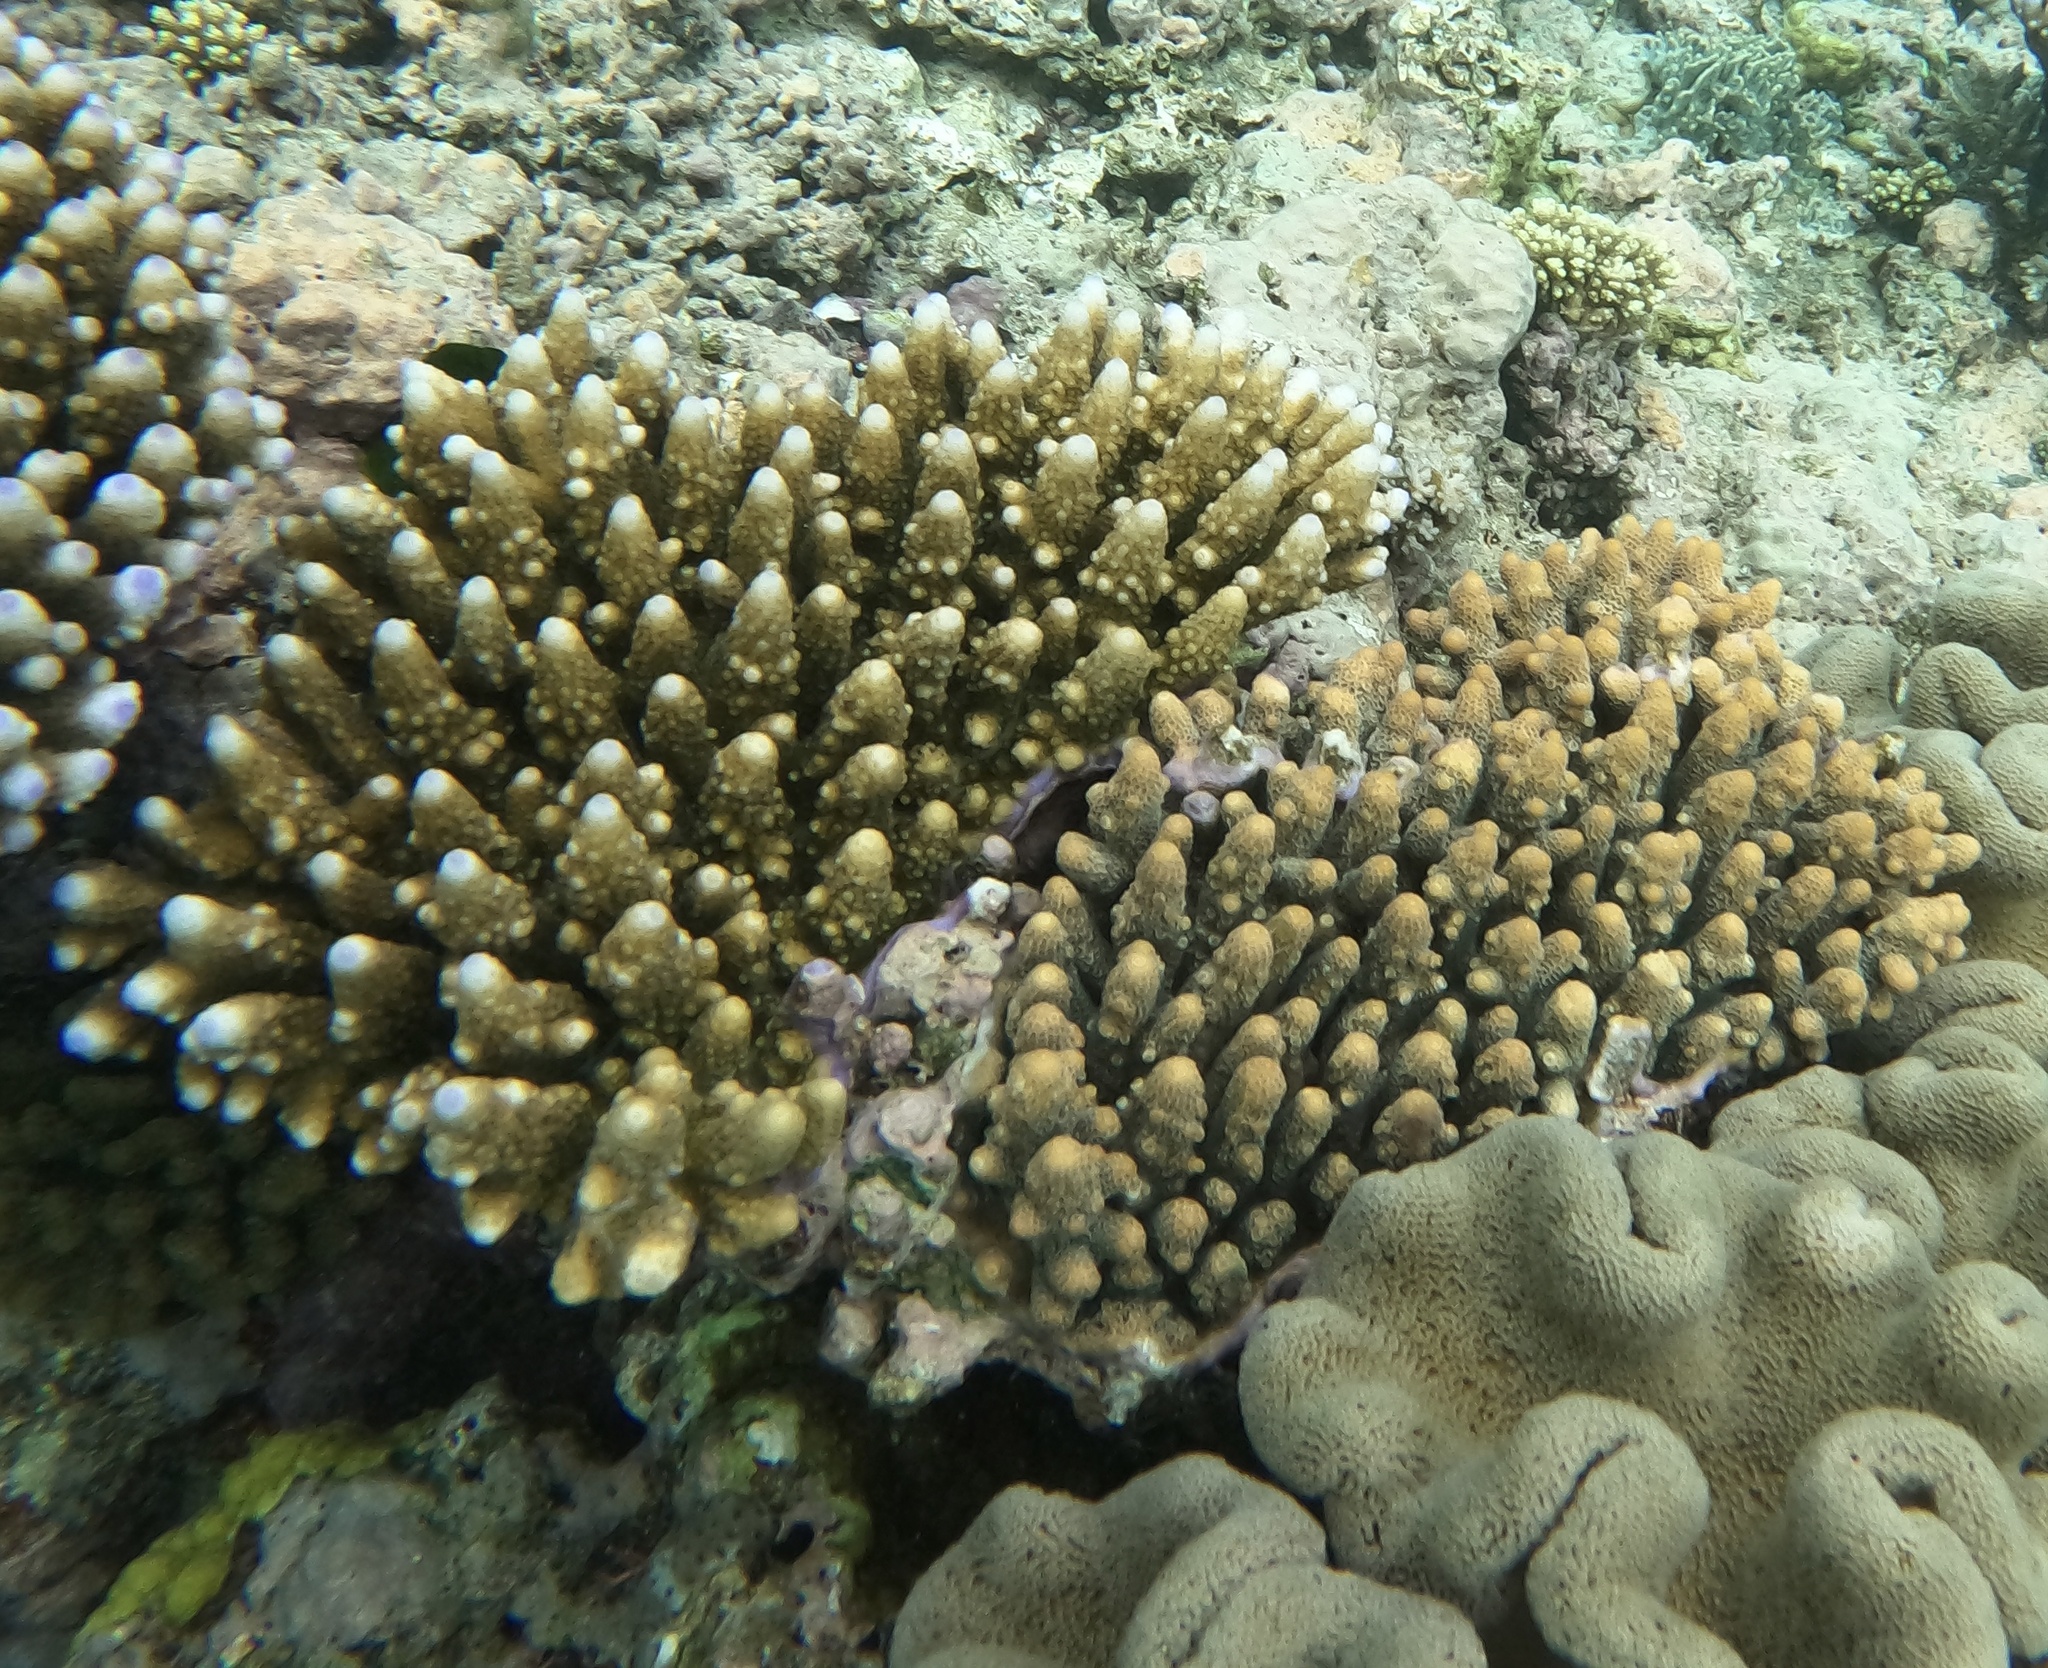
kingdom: Animalia
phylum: Cnidaria
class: Anthozoa
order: Scleractinia
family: Acroporidae
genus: Acropora
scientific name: Acropora gemmifera
